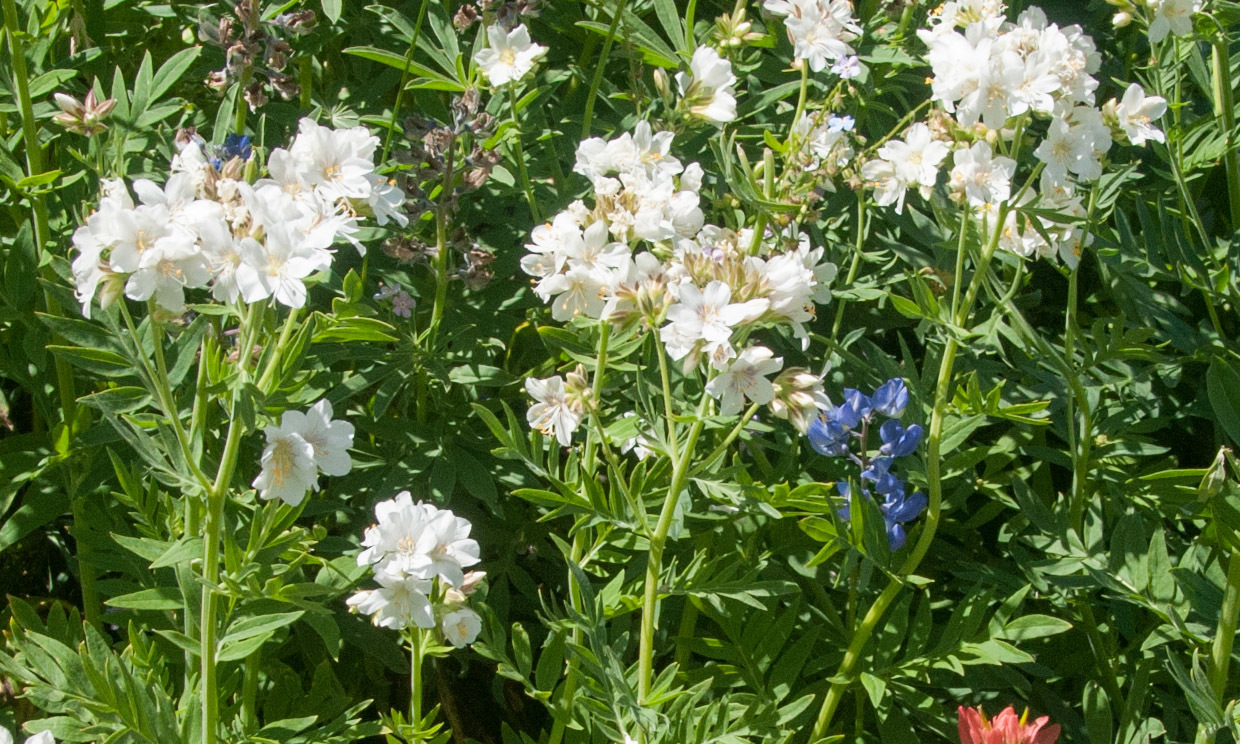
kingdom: Plantae
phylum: Tracheophyta
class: Magnoliopsida
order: Ericales
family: Polemoniaceae
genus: Polemonium
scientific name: Polemonium foliosissimum
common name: Leafy jacob's-ladder
